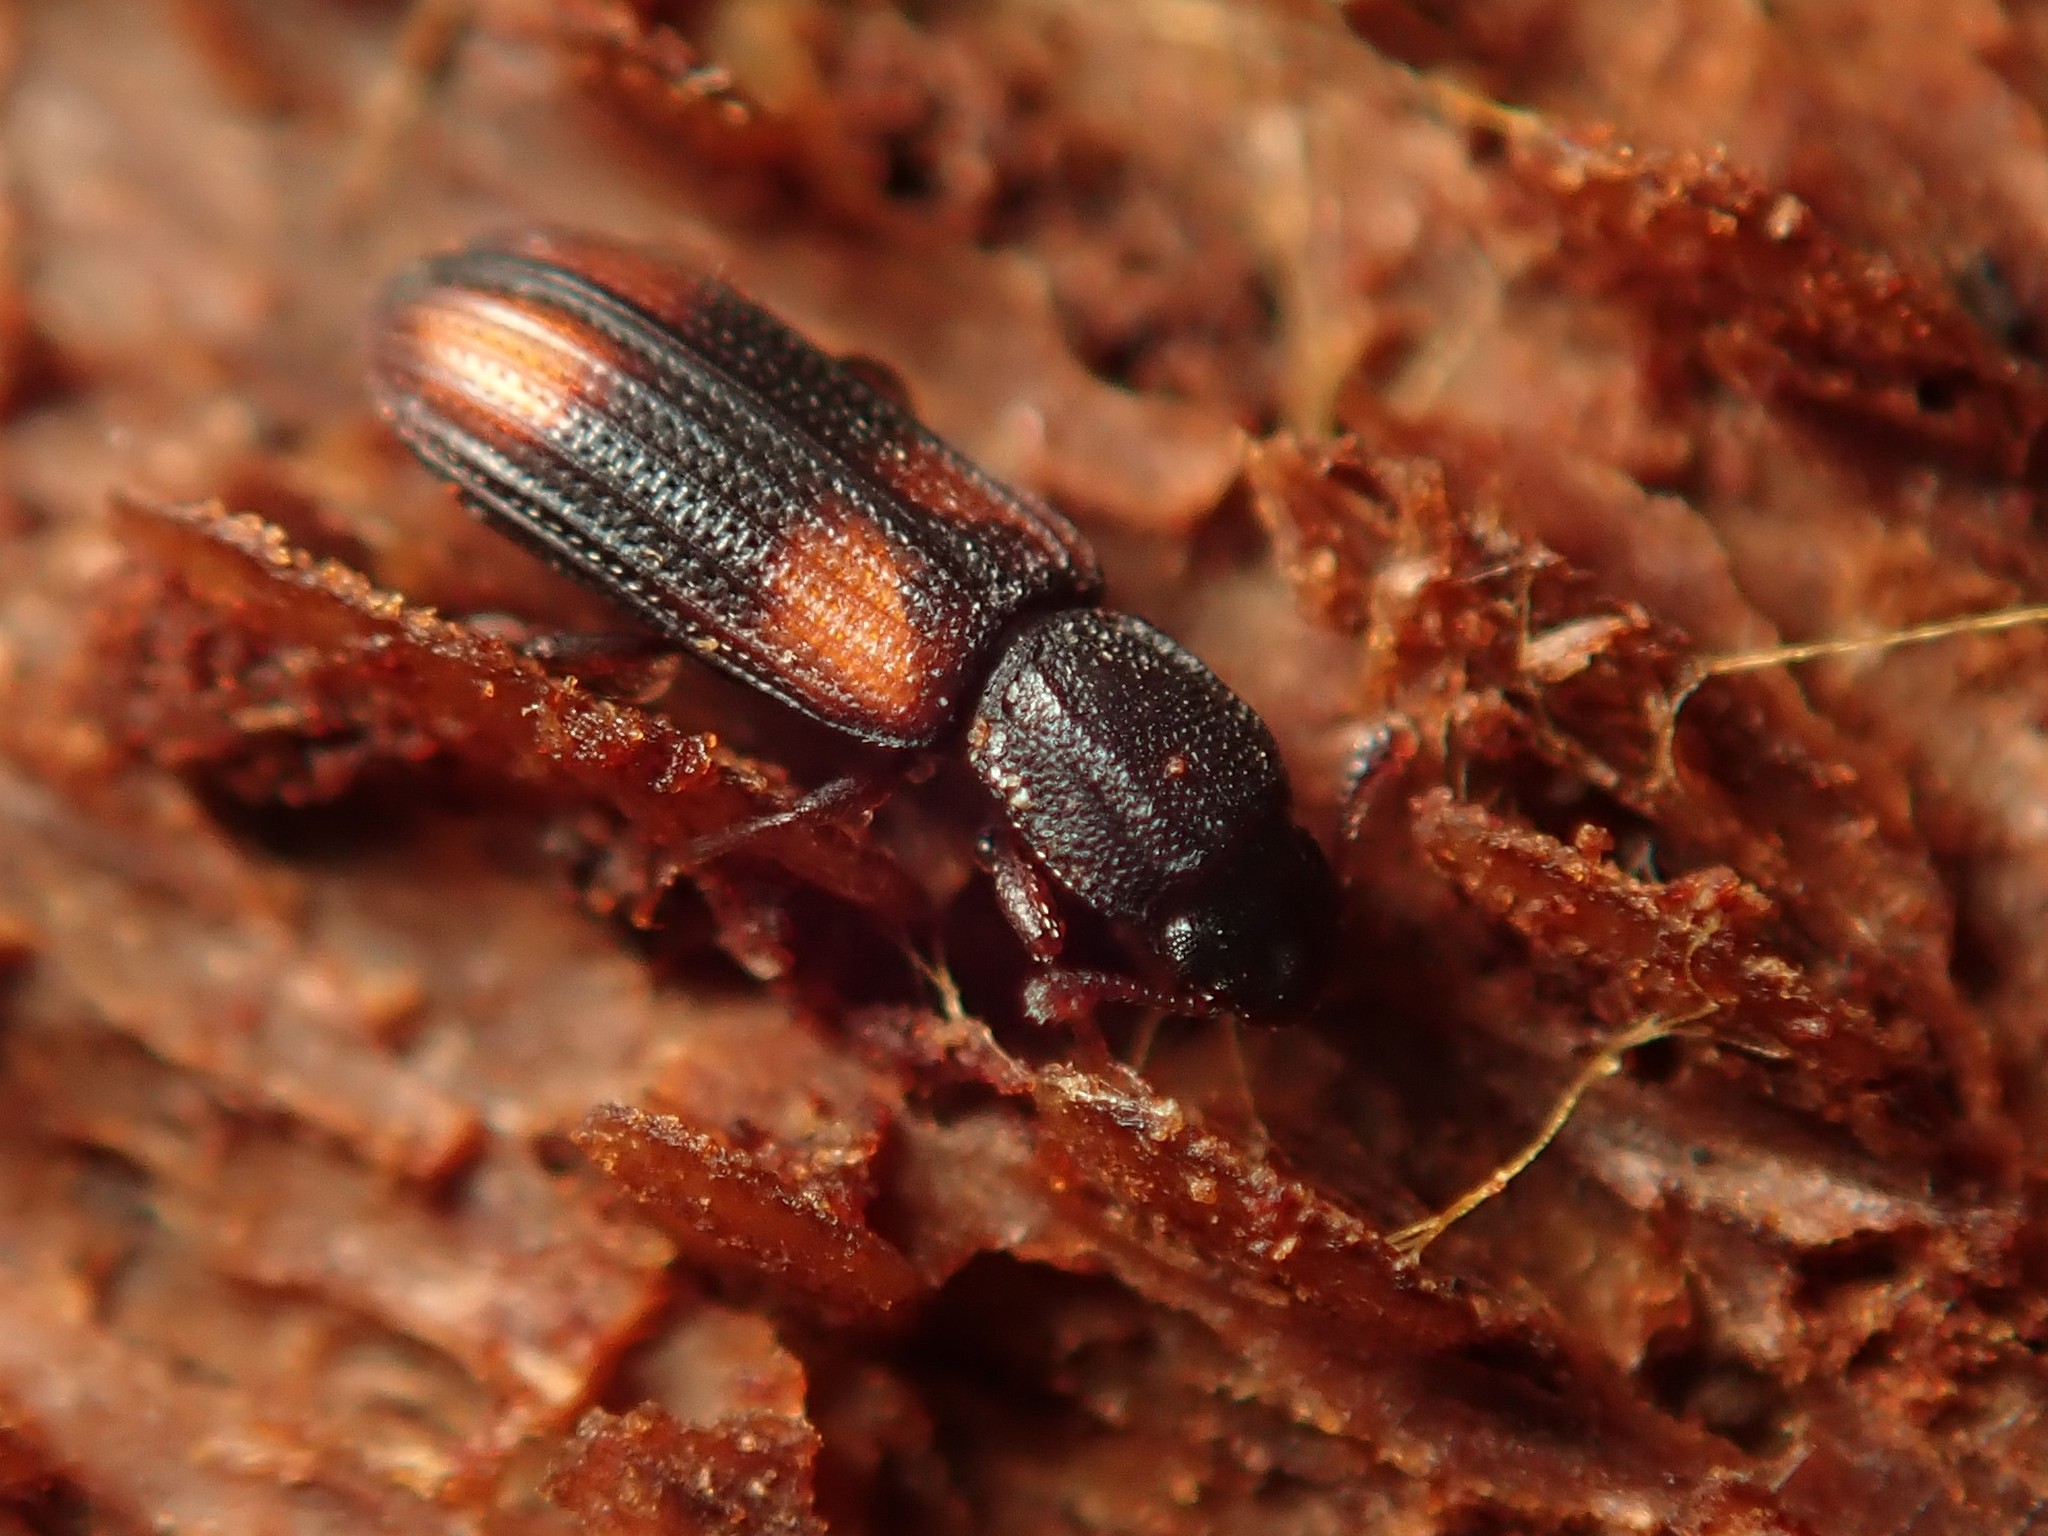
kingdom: Animalia
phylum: Arthropoda
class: Insecta
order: Coleoptera
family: Zopheridae
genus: Bitoma
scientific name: Bitoma crenata
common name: Bark beetle
